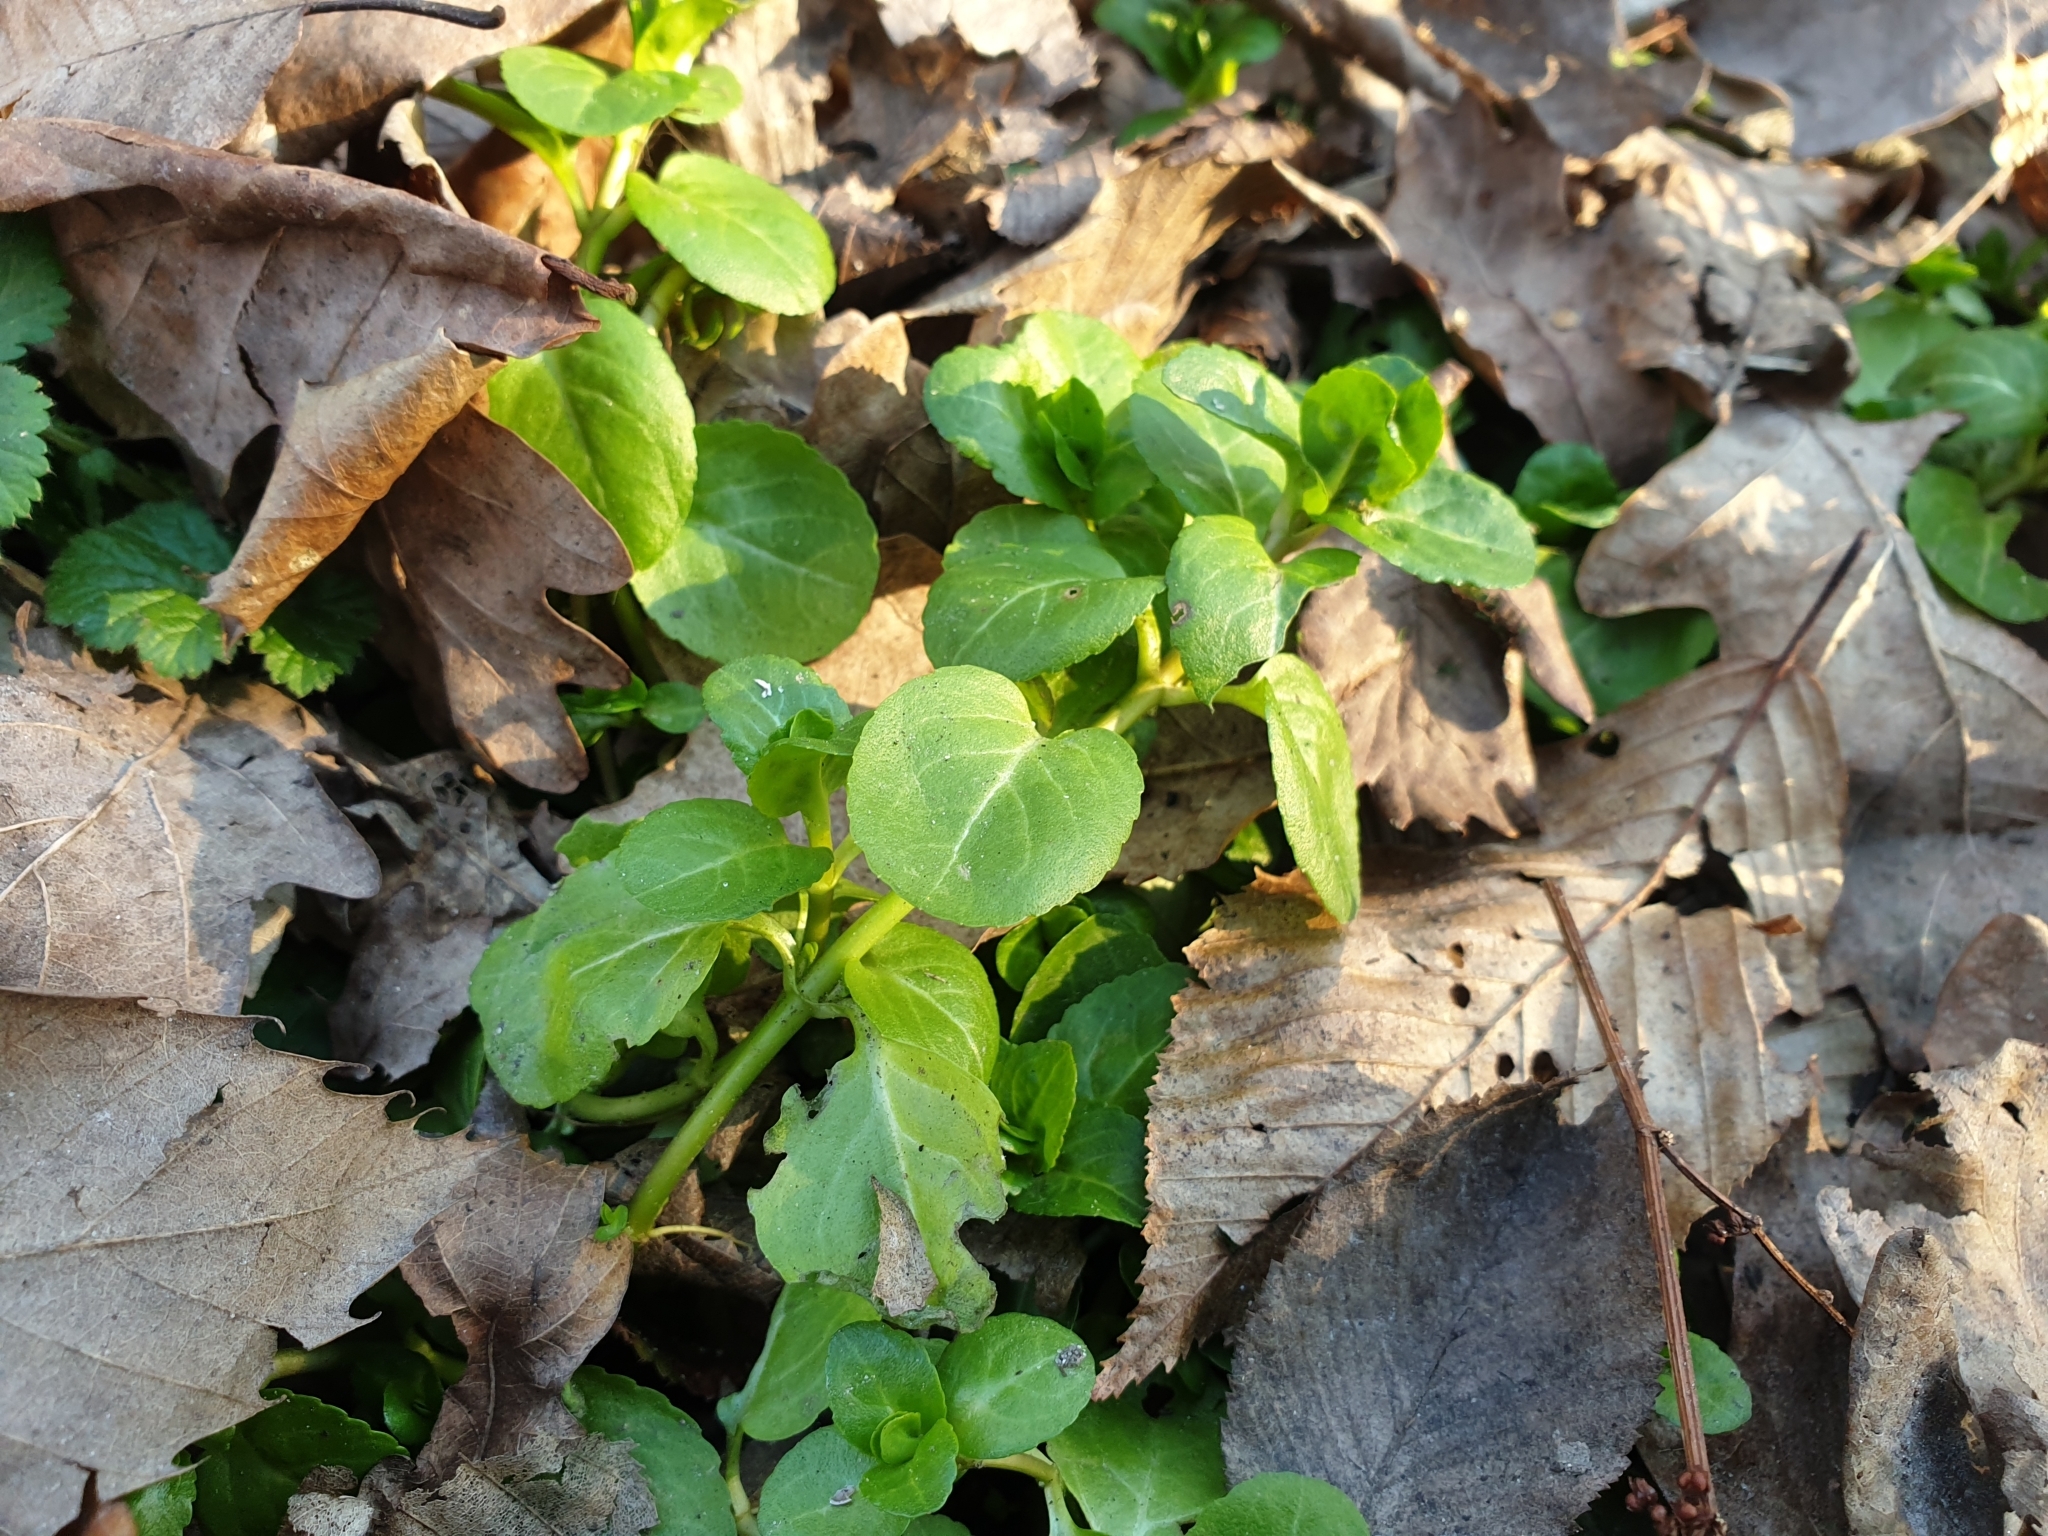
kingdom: Plantae
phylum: Tracheophyta
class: Magnoliopsida
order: Lamiales
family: Plantaginaceae
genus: Veronica
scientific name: Veronica beccabunga
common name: Brooklime
